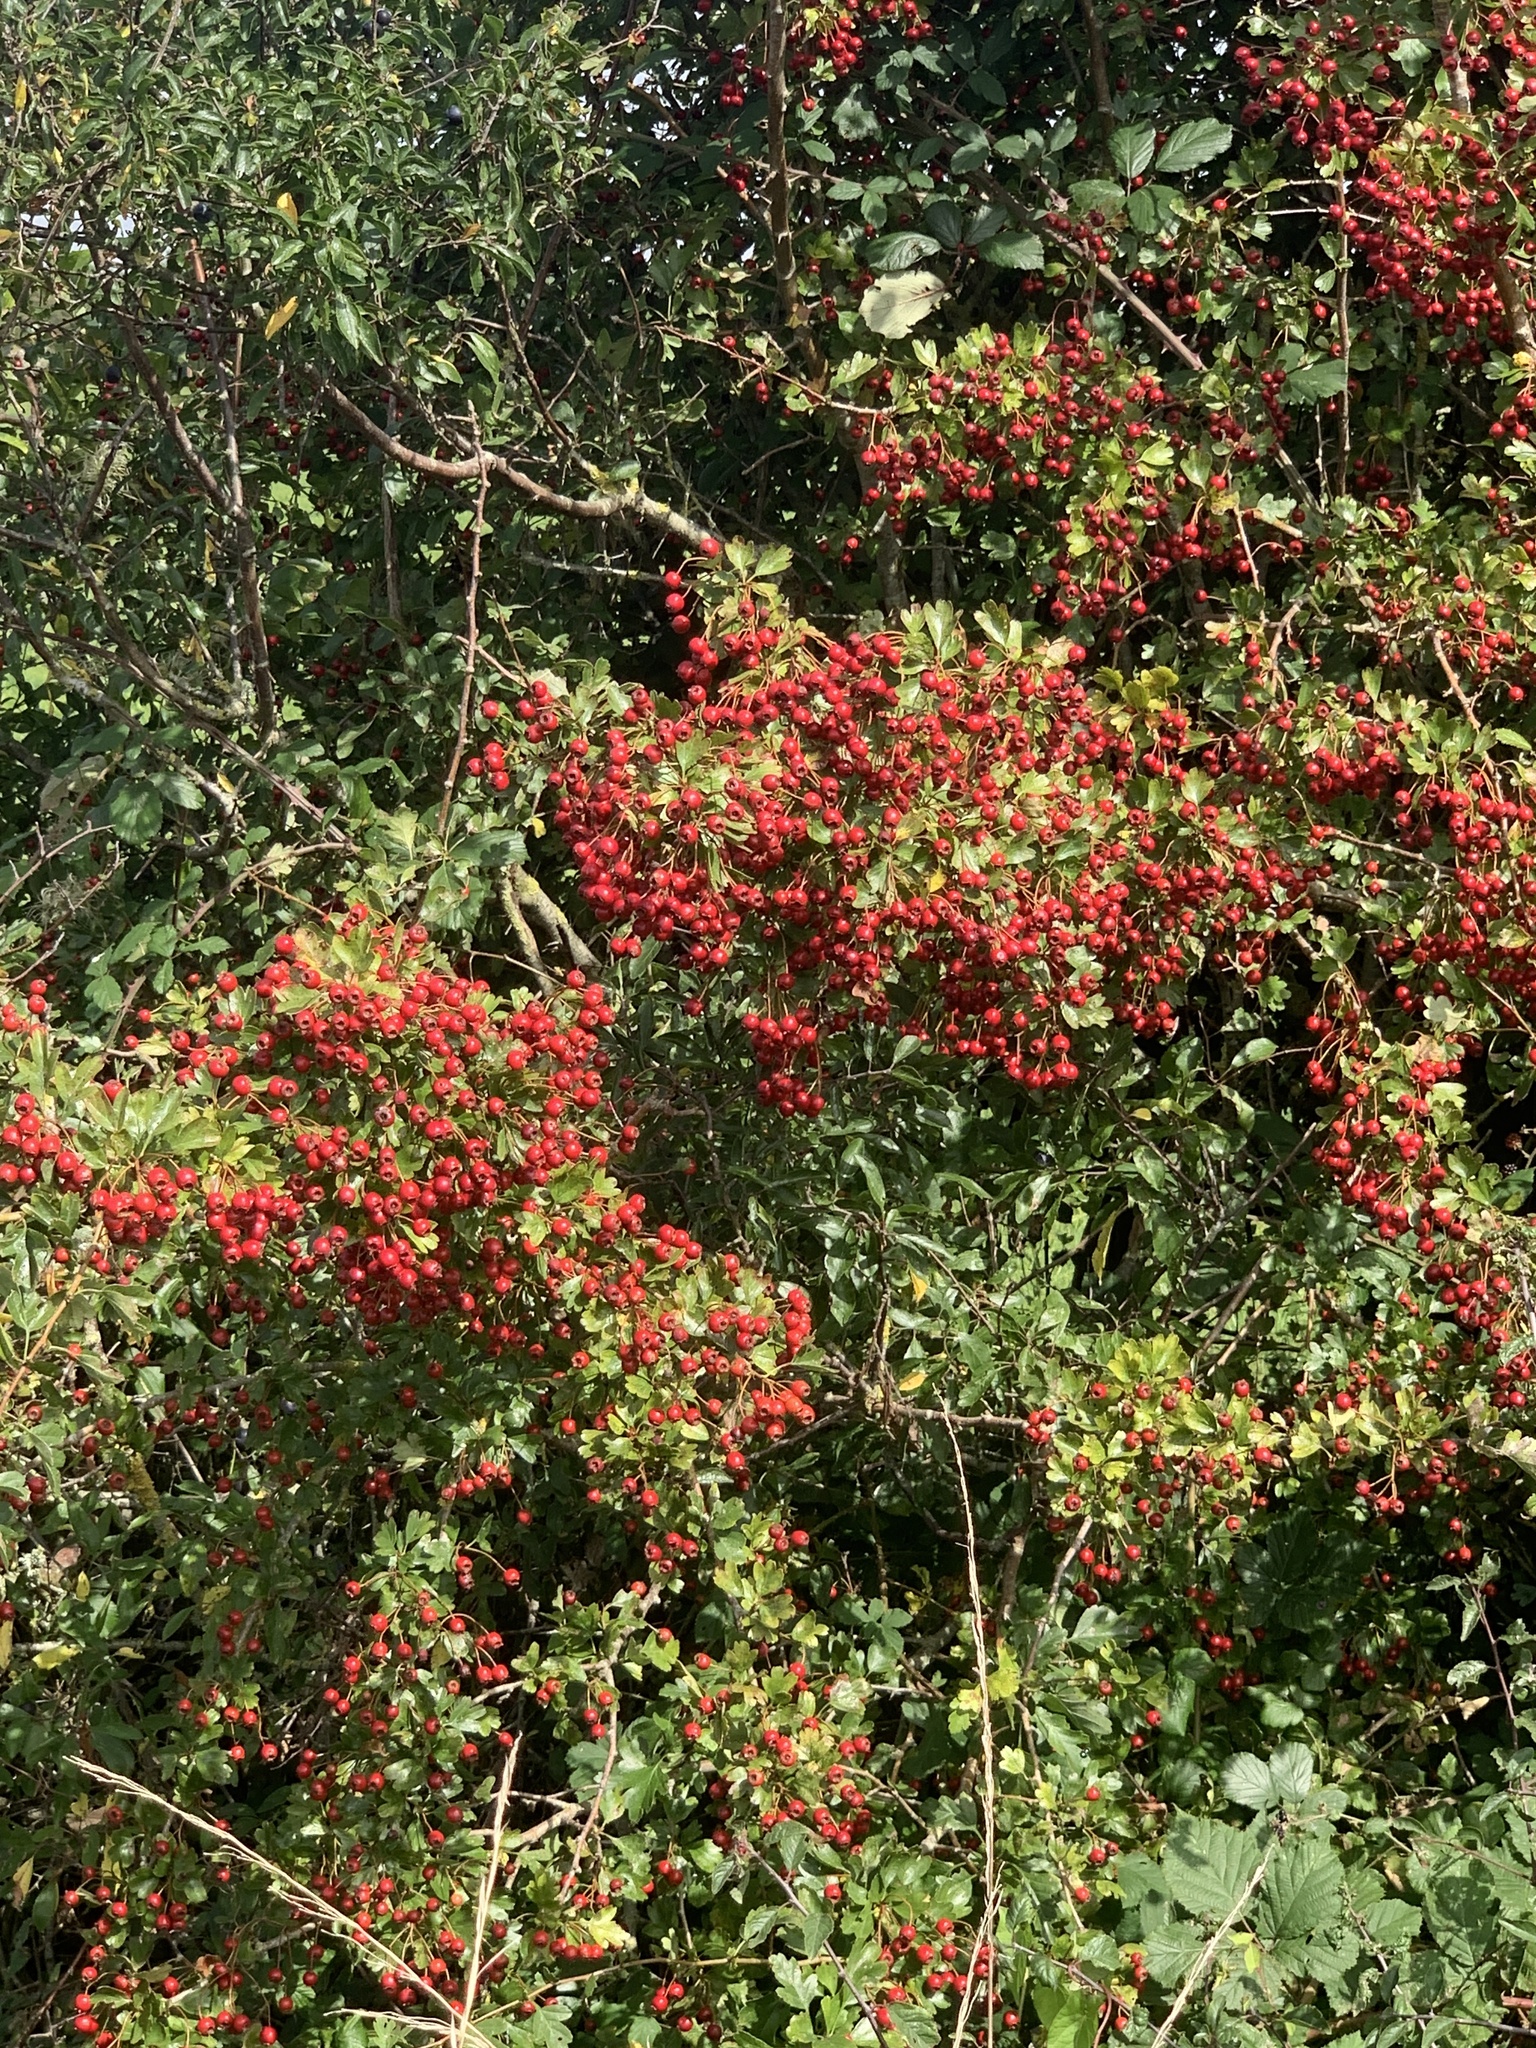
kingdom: Plantae
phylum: Tracheophyta
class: Magnoliopsida
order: Rosales
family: Rosaceae
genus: Crataegus
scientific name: Crataegus monogyna
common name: Hawthorn
